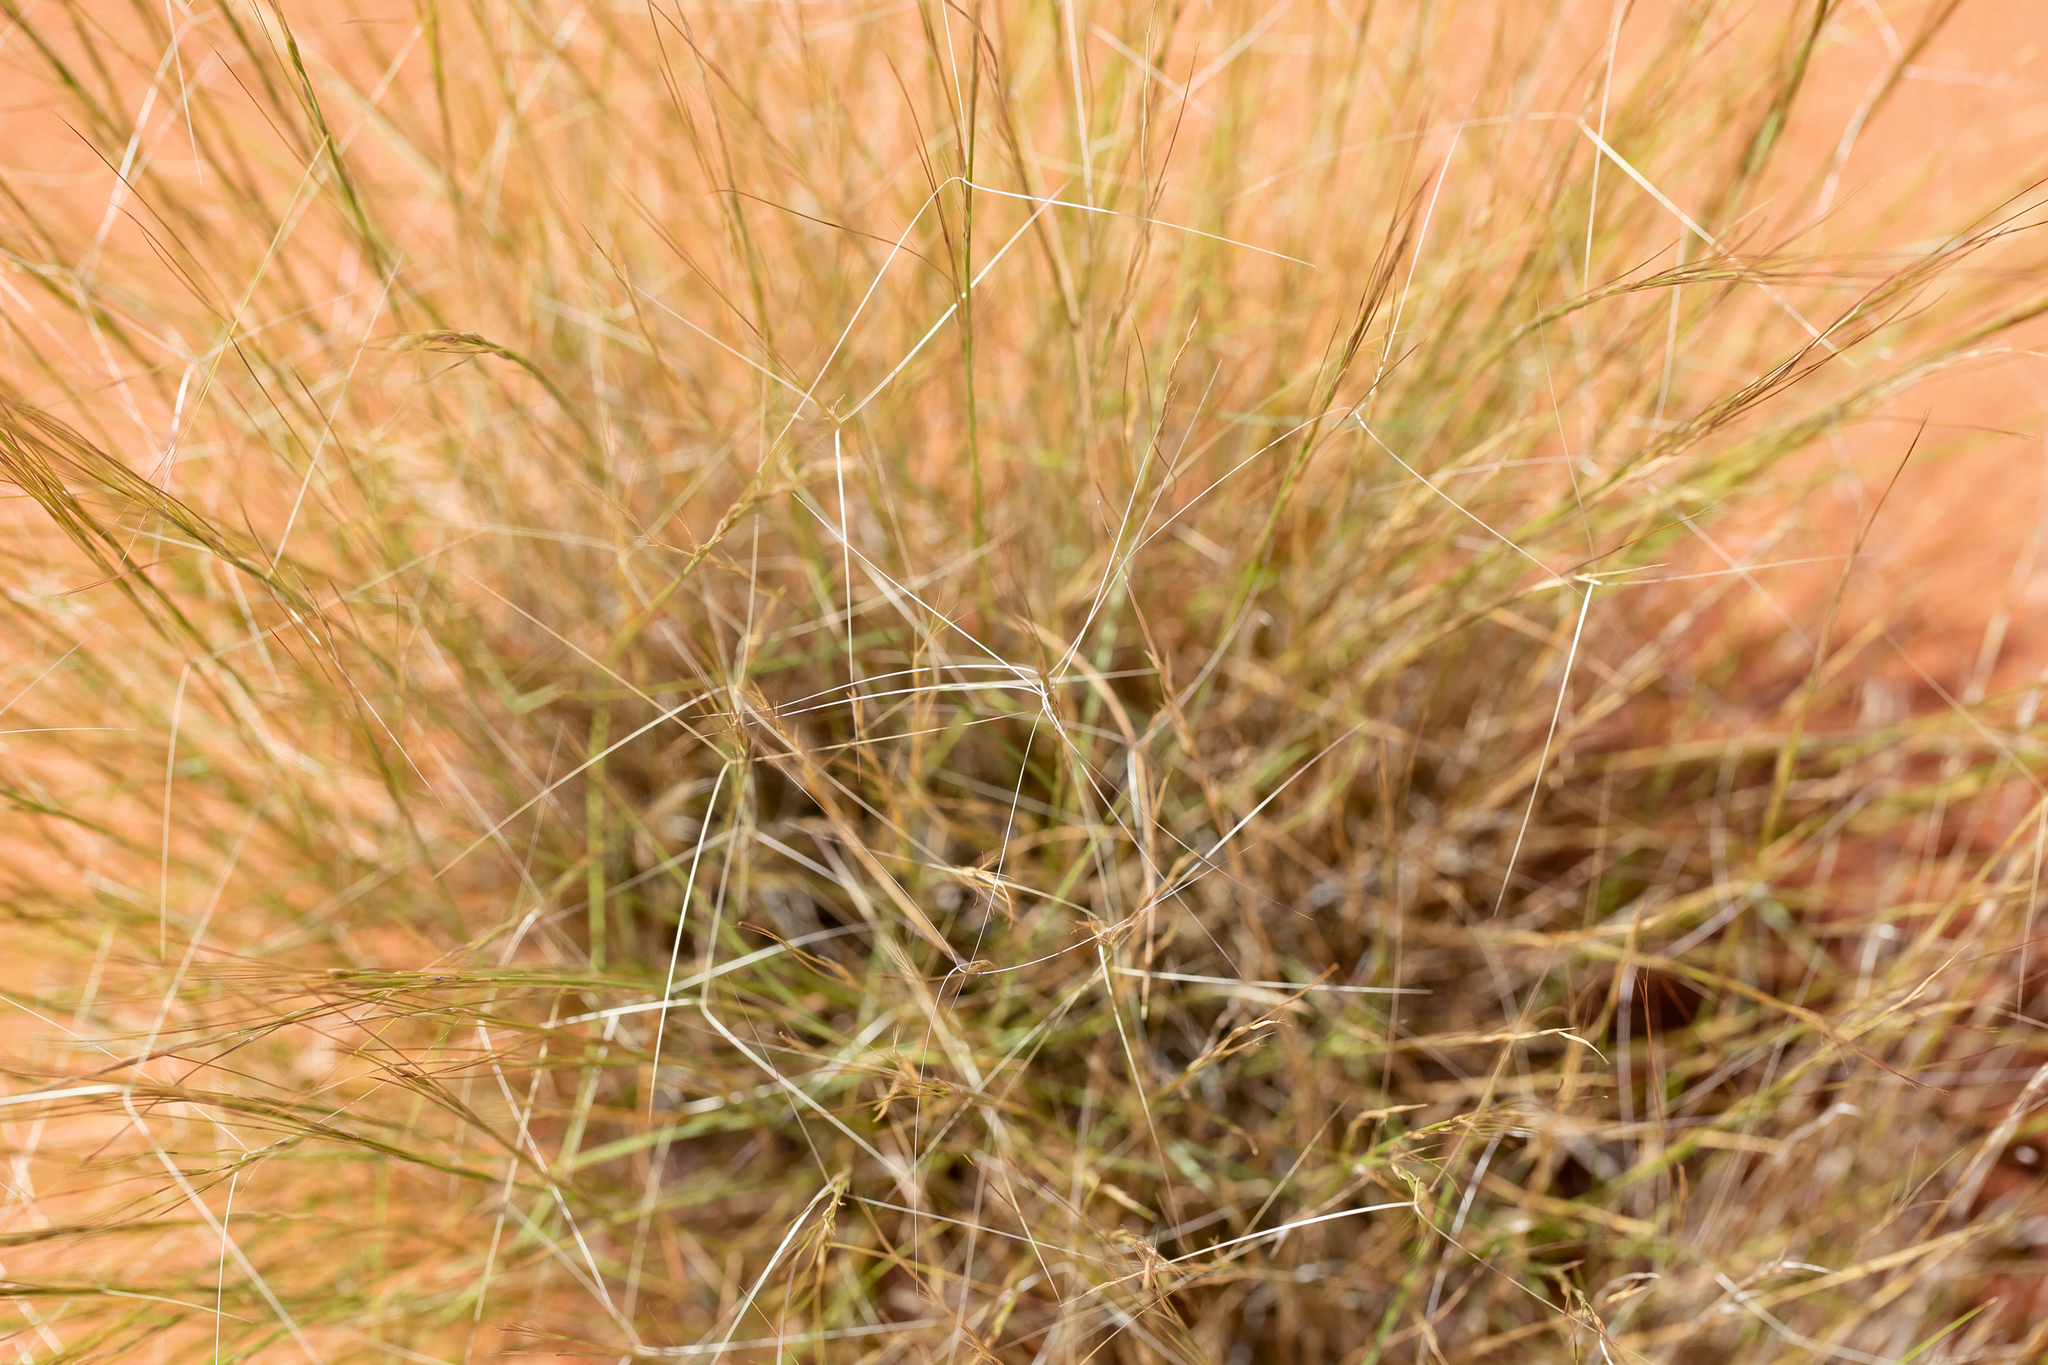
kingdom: Plantae
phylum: Tracheophyta
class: Liliopsida
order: Poales
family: Poaceae
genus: Aristida
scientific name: Aristida holathera
